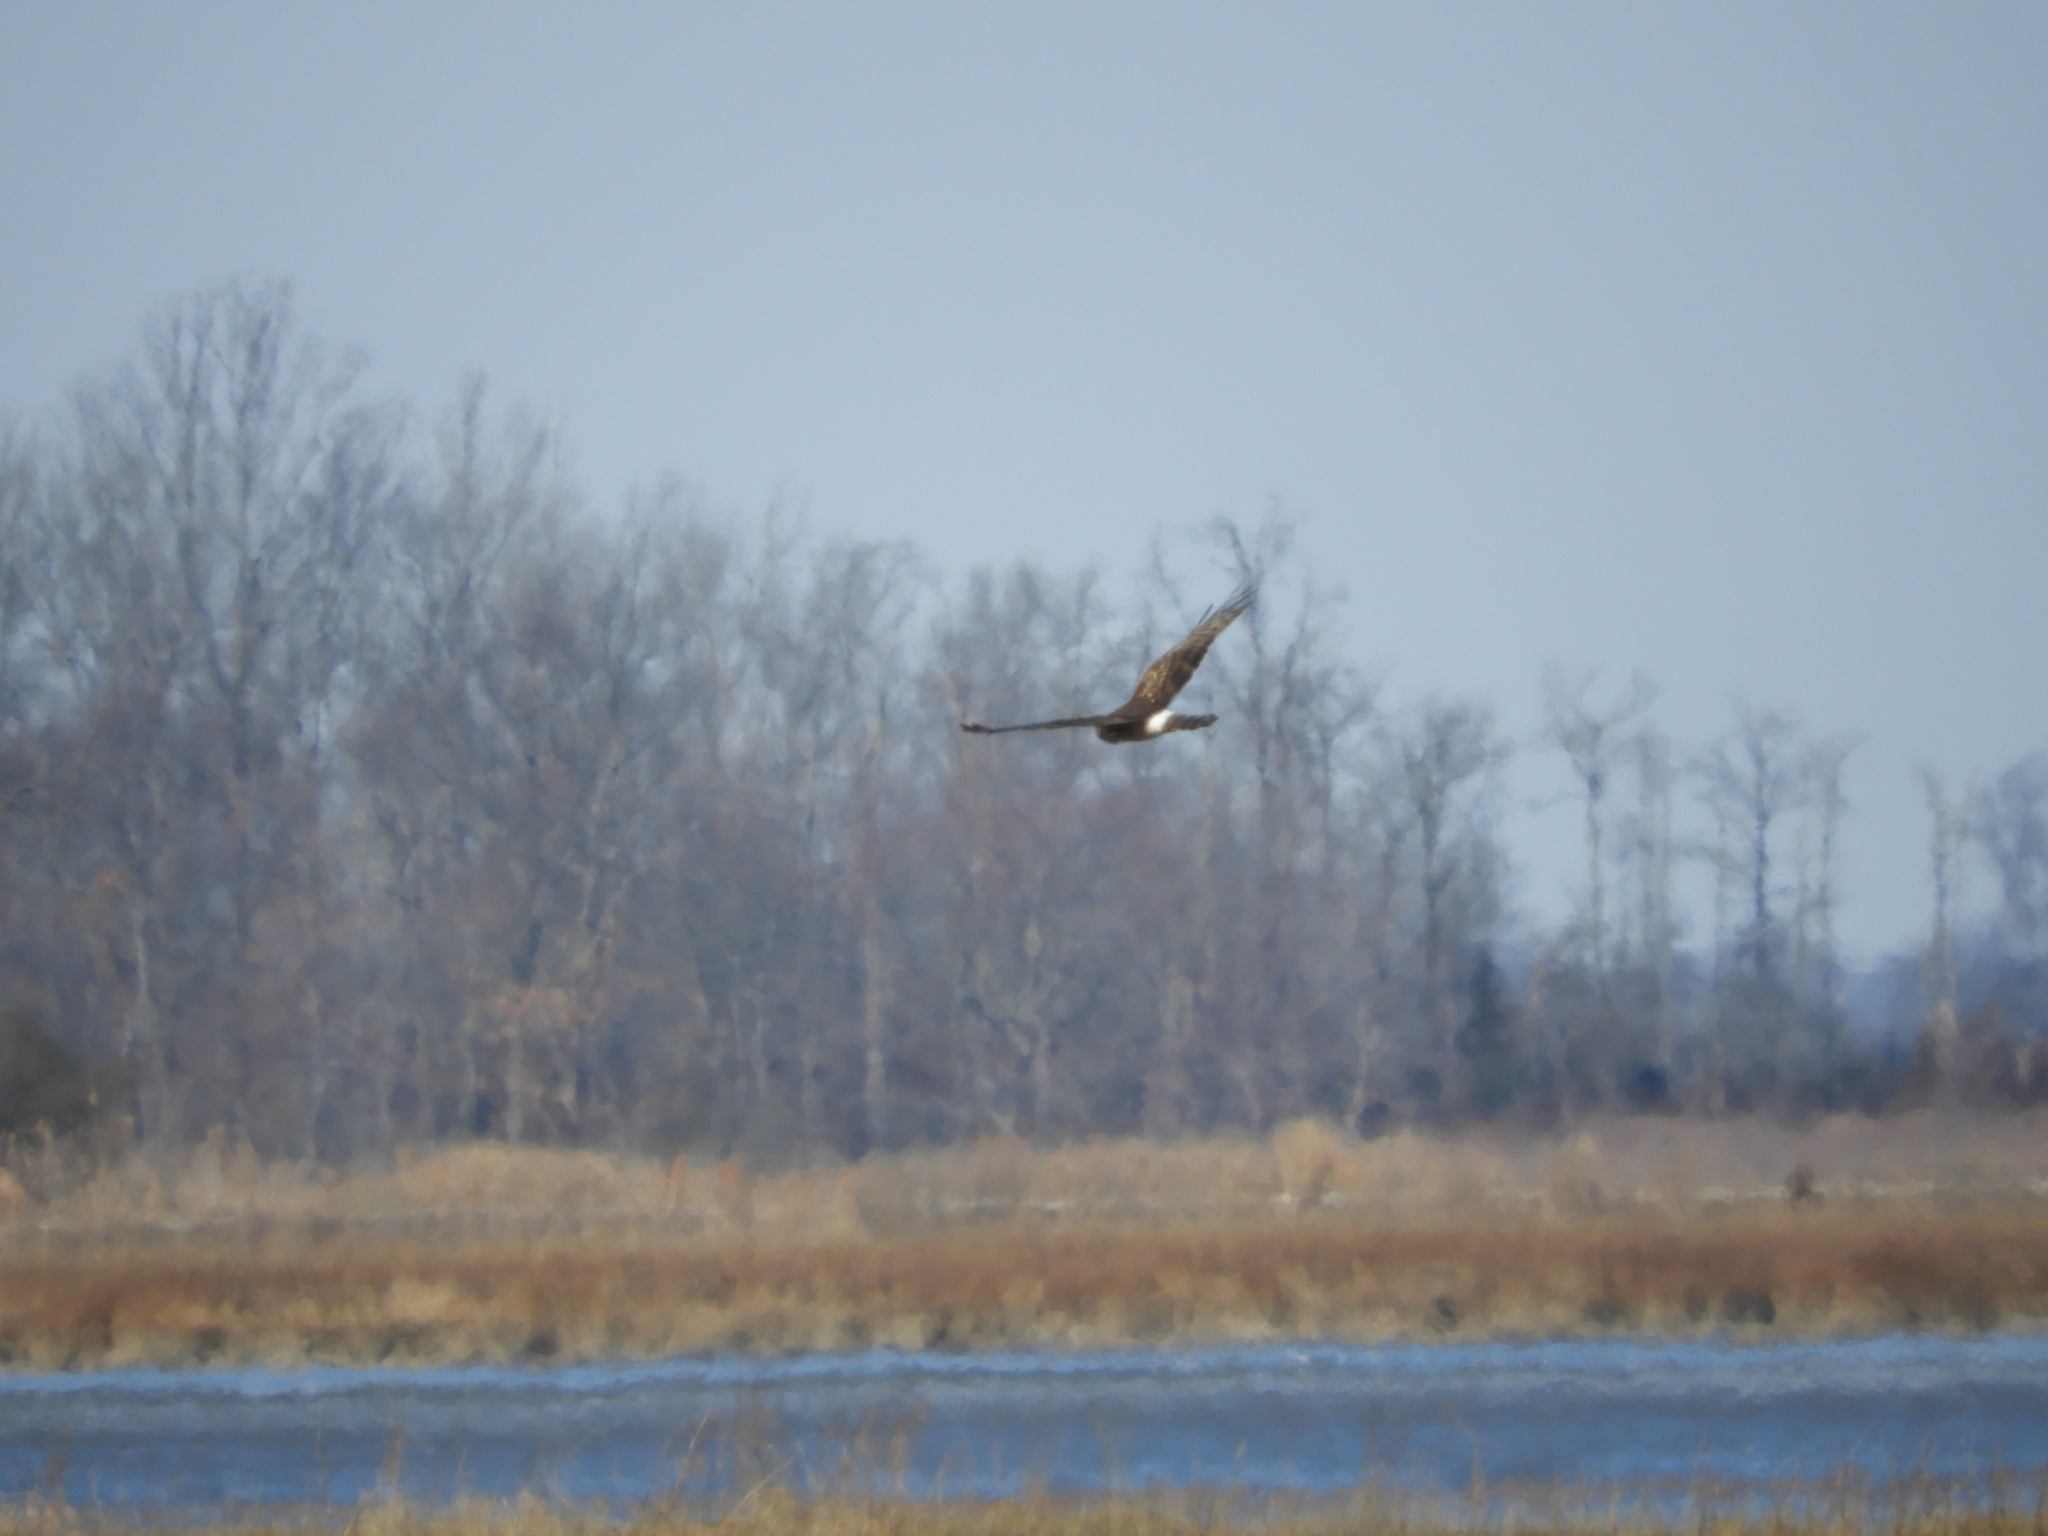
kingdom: Animalia
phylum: Chordata
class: Aves
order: Accipitriformes
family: Accipitridae
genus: Circus
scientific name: Circus cyaneus
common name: Hen harrier
